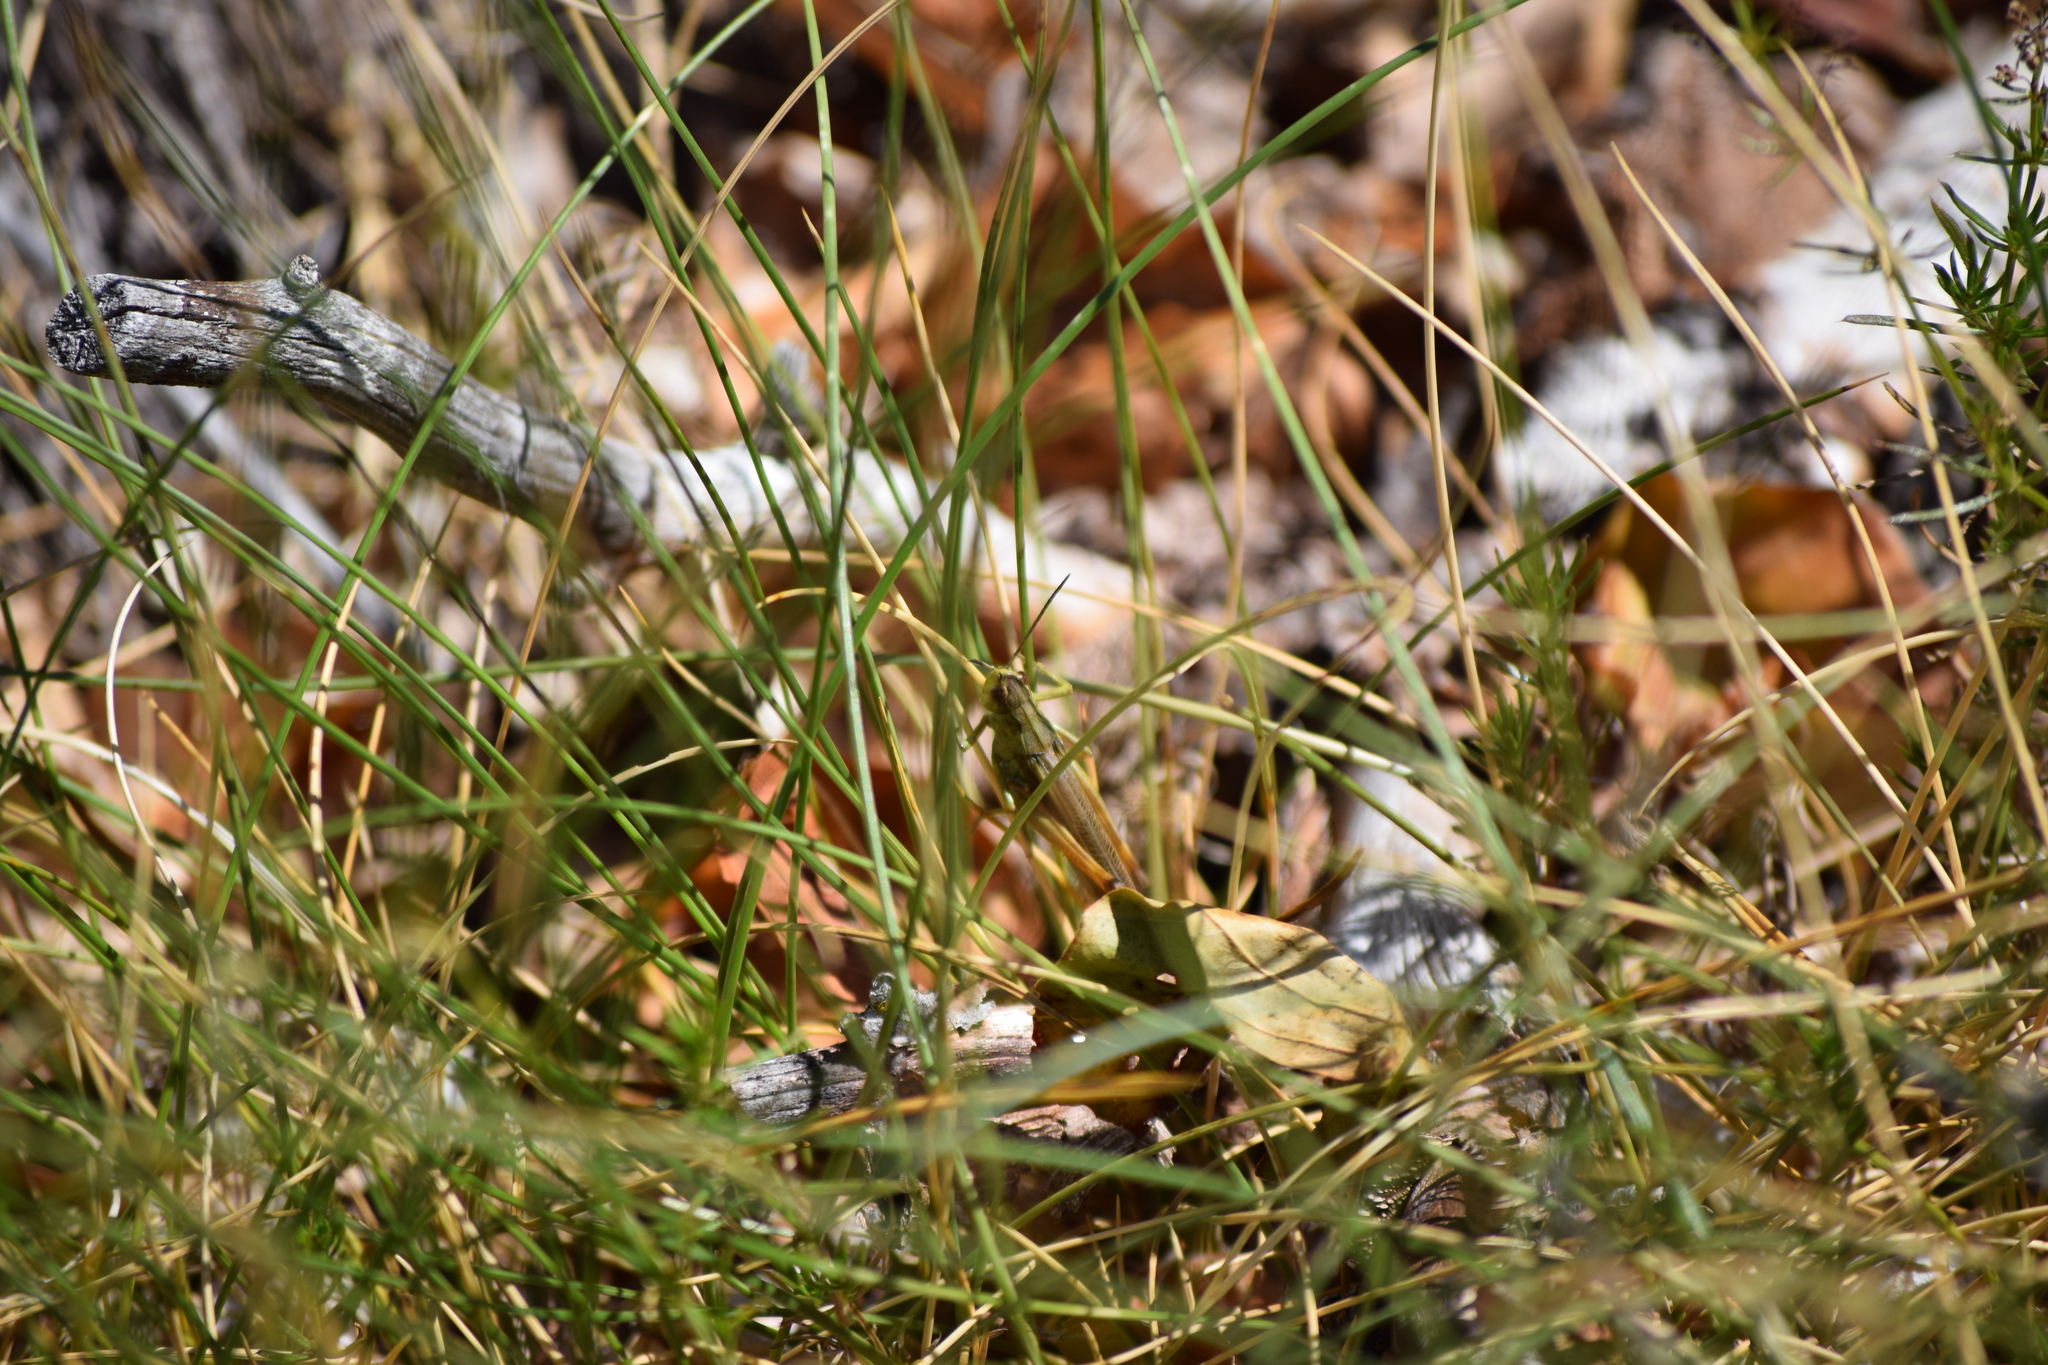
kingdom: Animalia
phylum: Arthropoda
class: Insecta
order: Orthoptera
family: Acrididae
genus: Stauroderus
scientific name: Stauroderus scalaris
